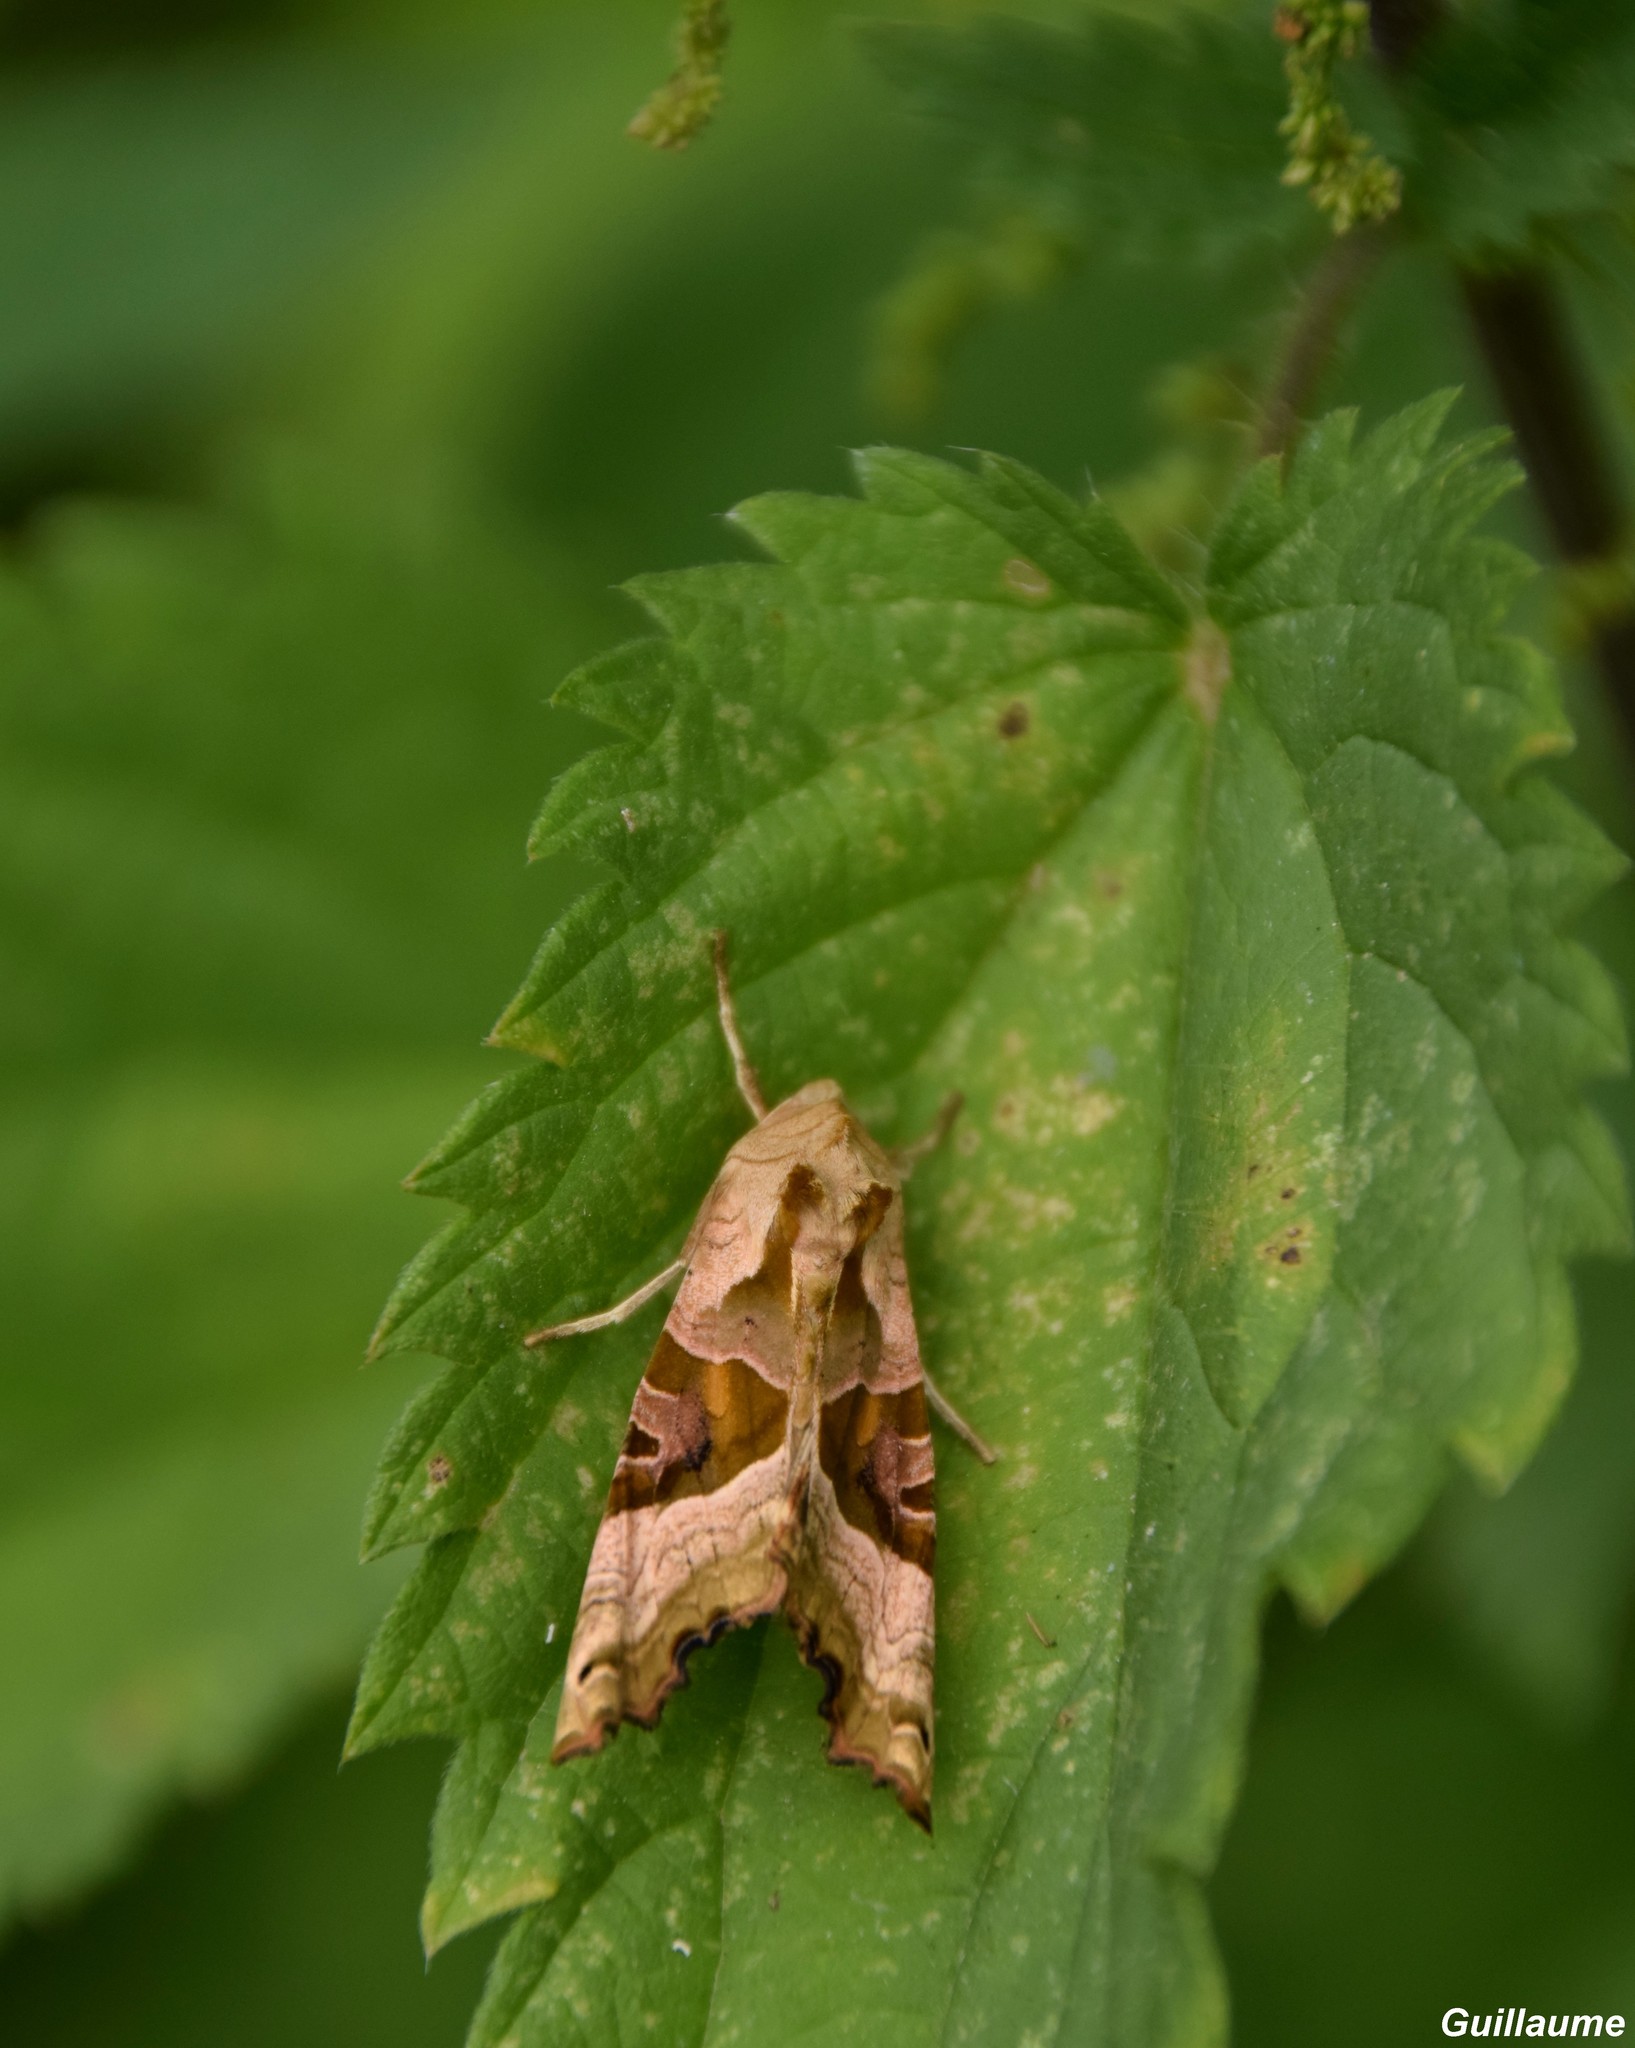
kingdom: Animalia
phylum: Arthropoda
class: Insecta
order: Lepidoptera
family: Noctuidae
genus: Phlogophora
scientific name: Phlogophora meticulosa
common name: Angle shades
